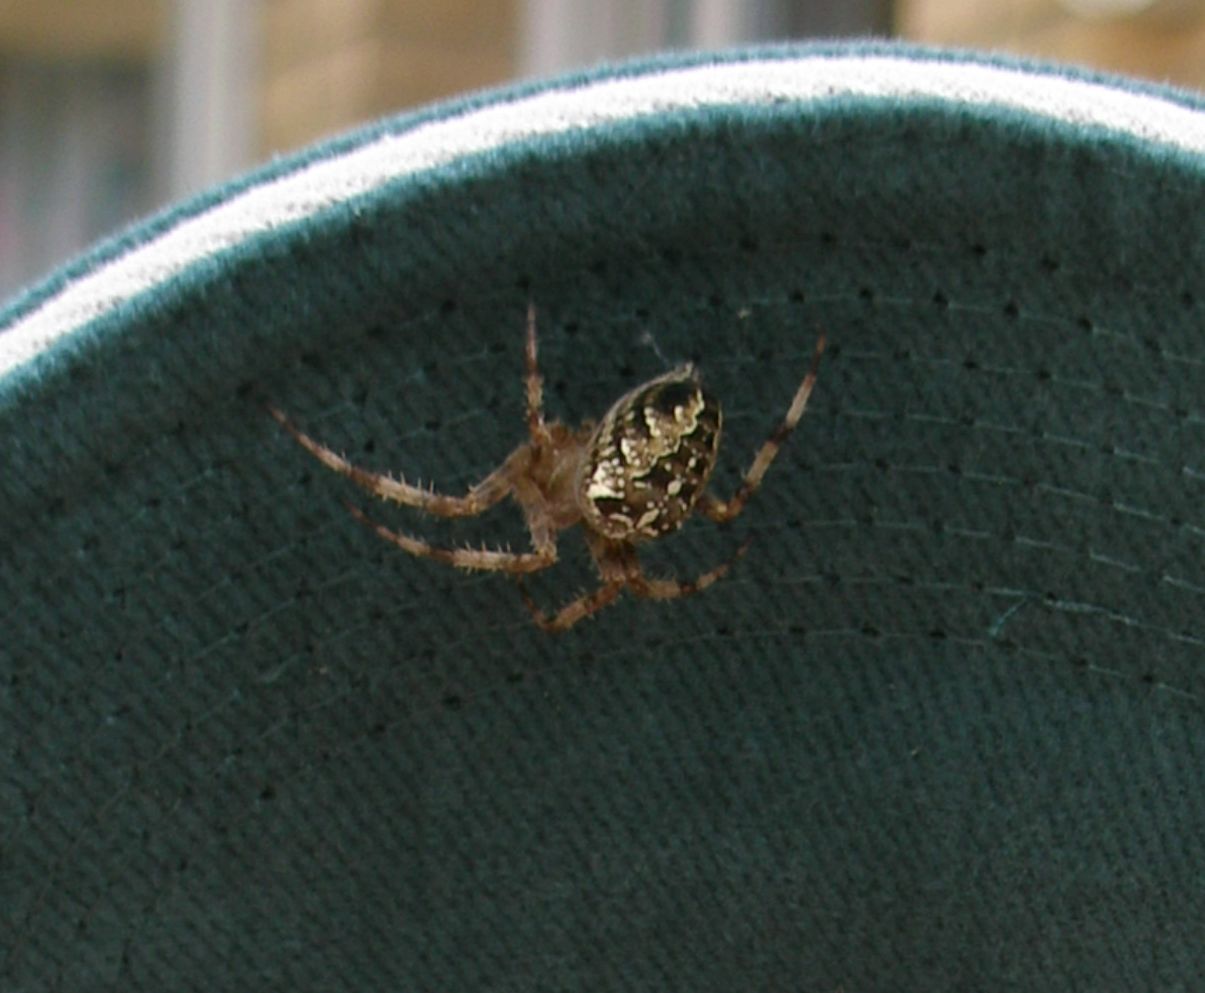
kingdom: Animalia
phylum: Arthropoda
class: Arachnida
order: Araneae
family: Araneidae
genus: Araneus
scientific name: Araneus diadematus
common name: Cross orbweaver
